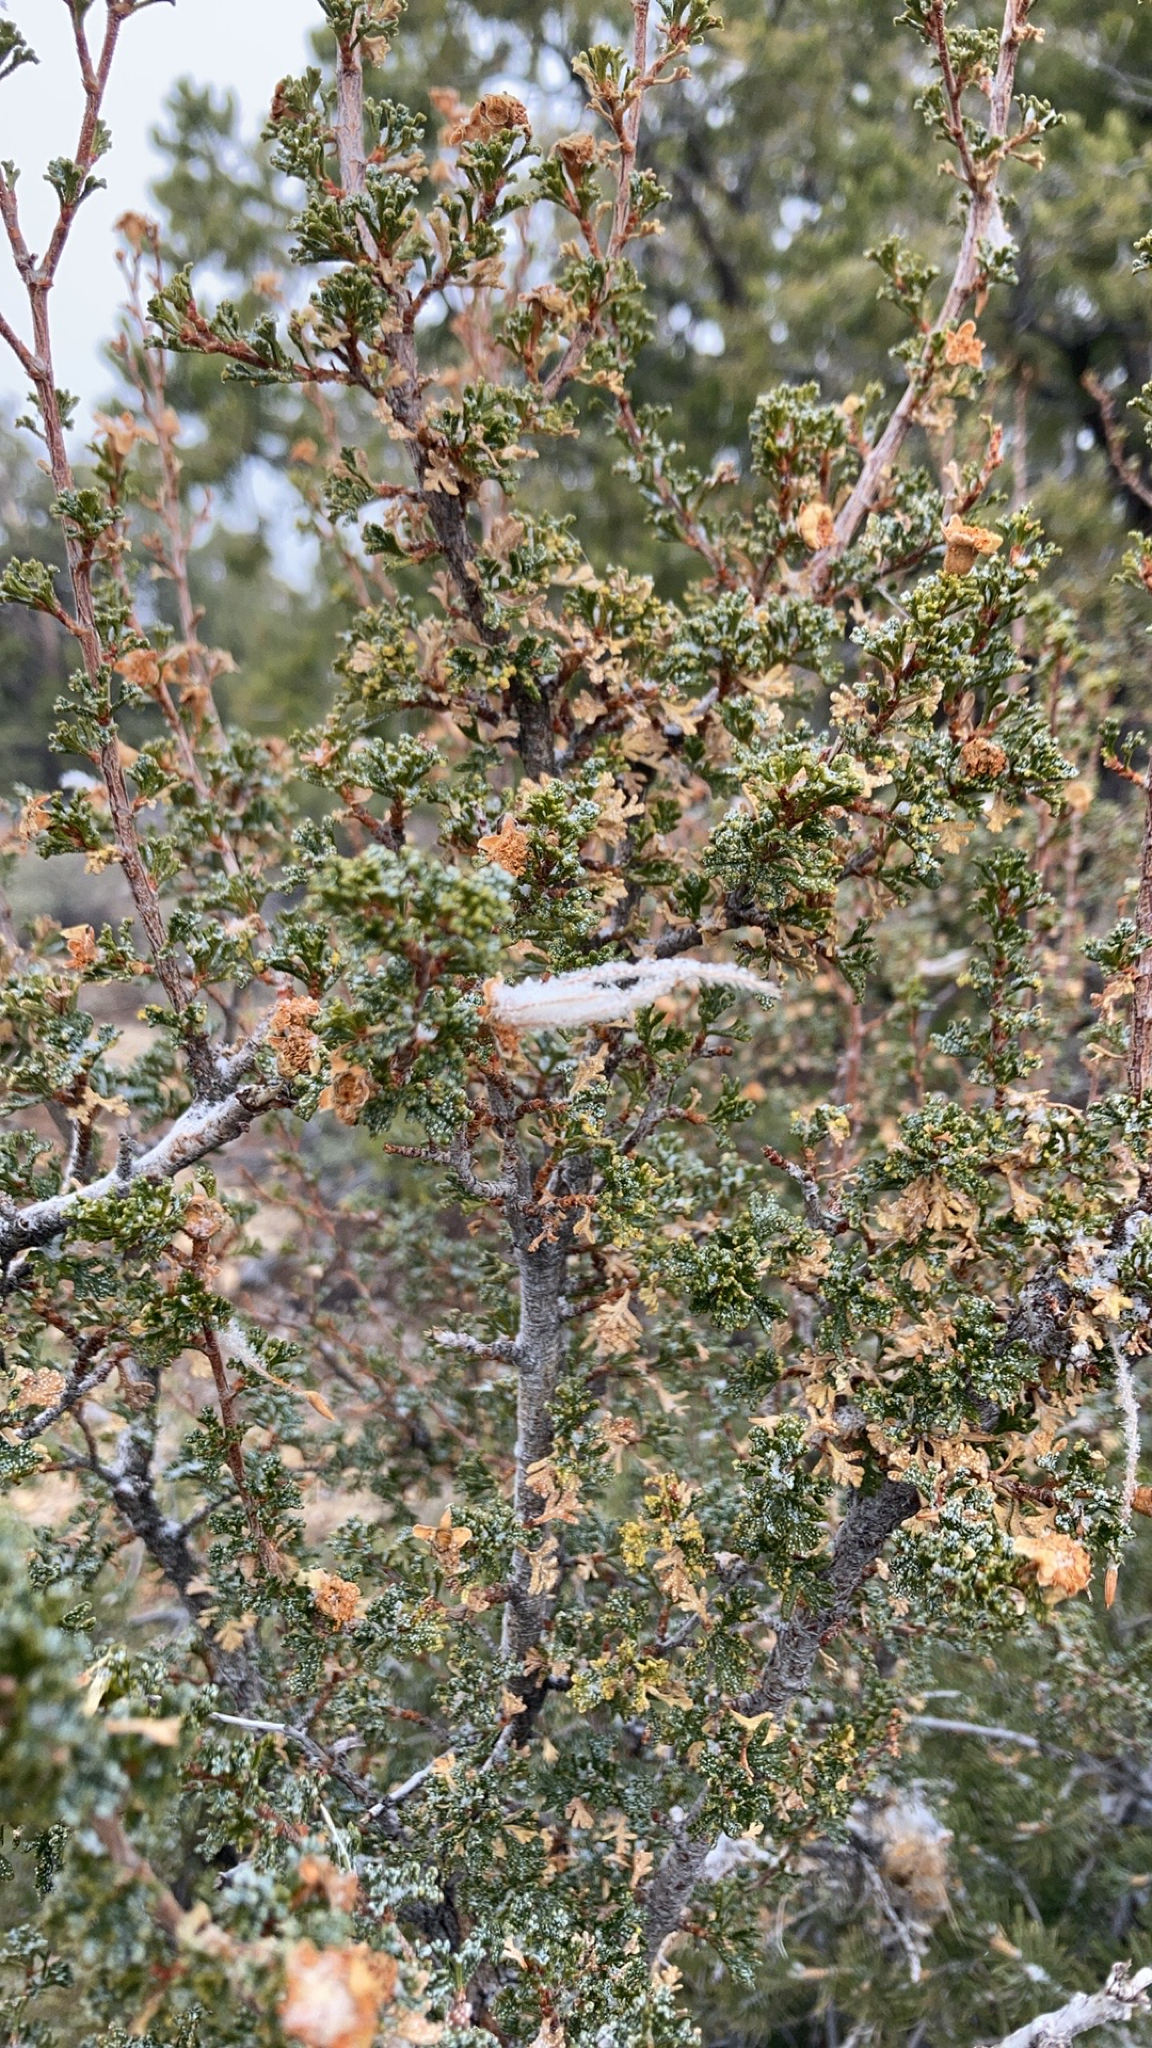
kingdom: Plantae
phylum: Tracheophyta
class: Magnoliopsida
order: Rosales
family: Rosaceae
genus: Purshia
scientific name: Purshia stansburiana
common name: Stansbury's cliffrose
